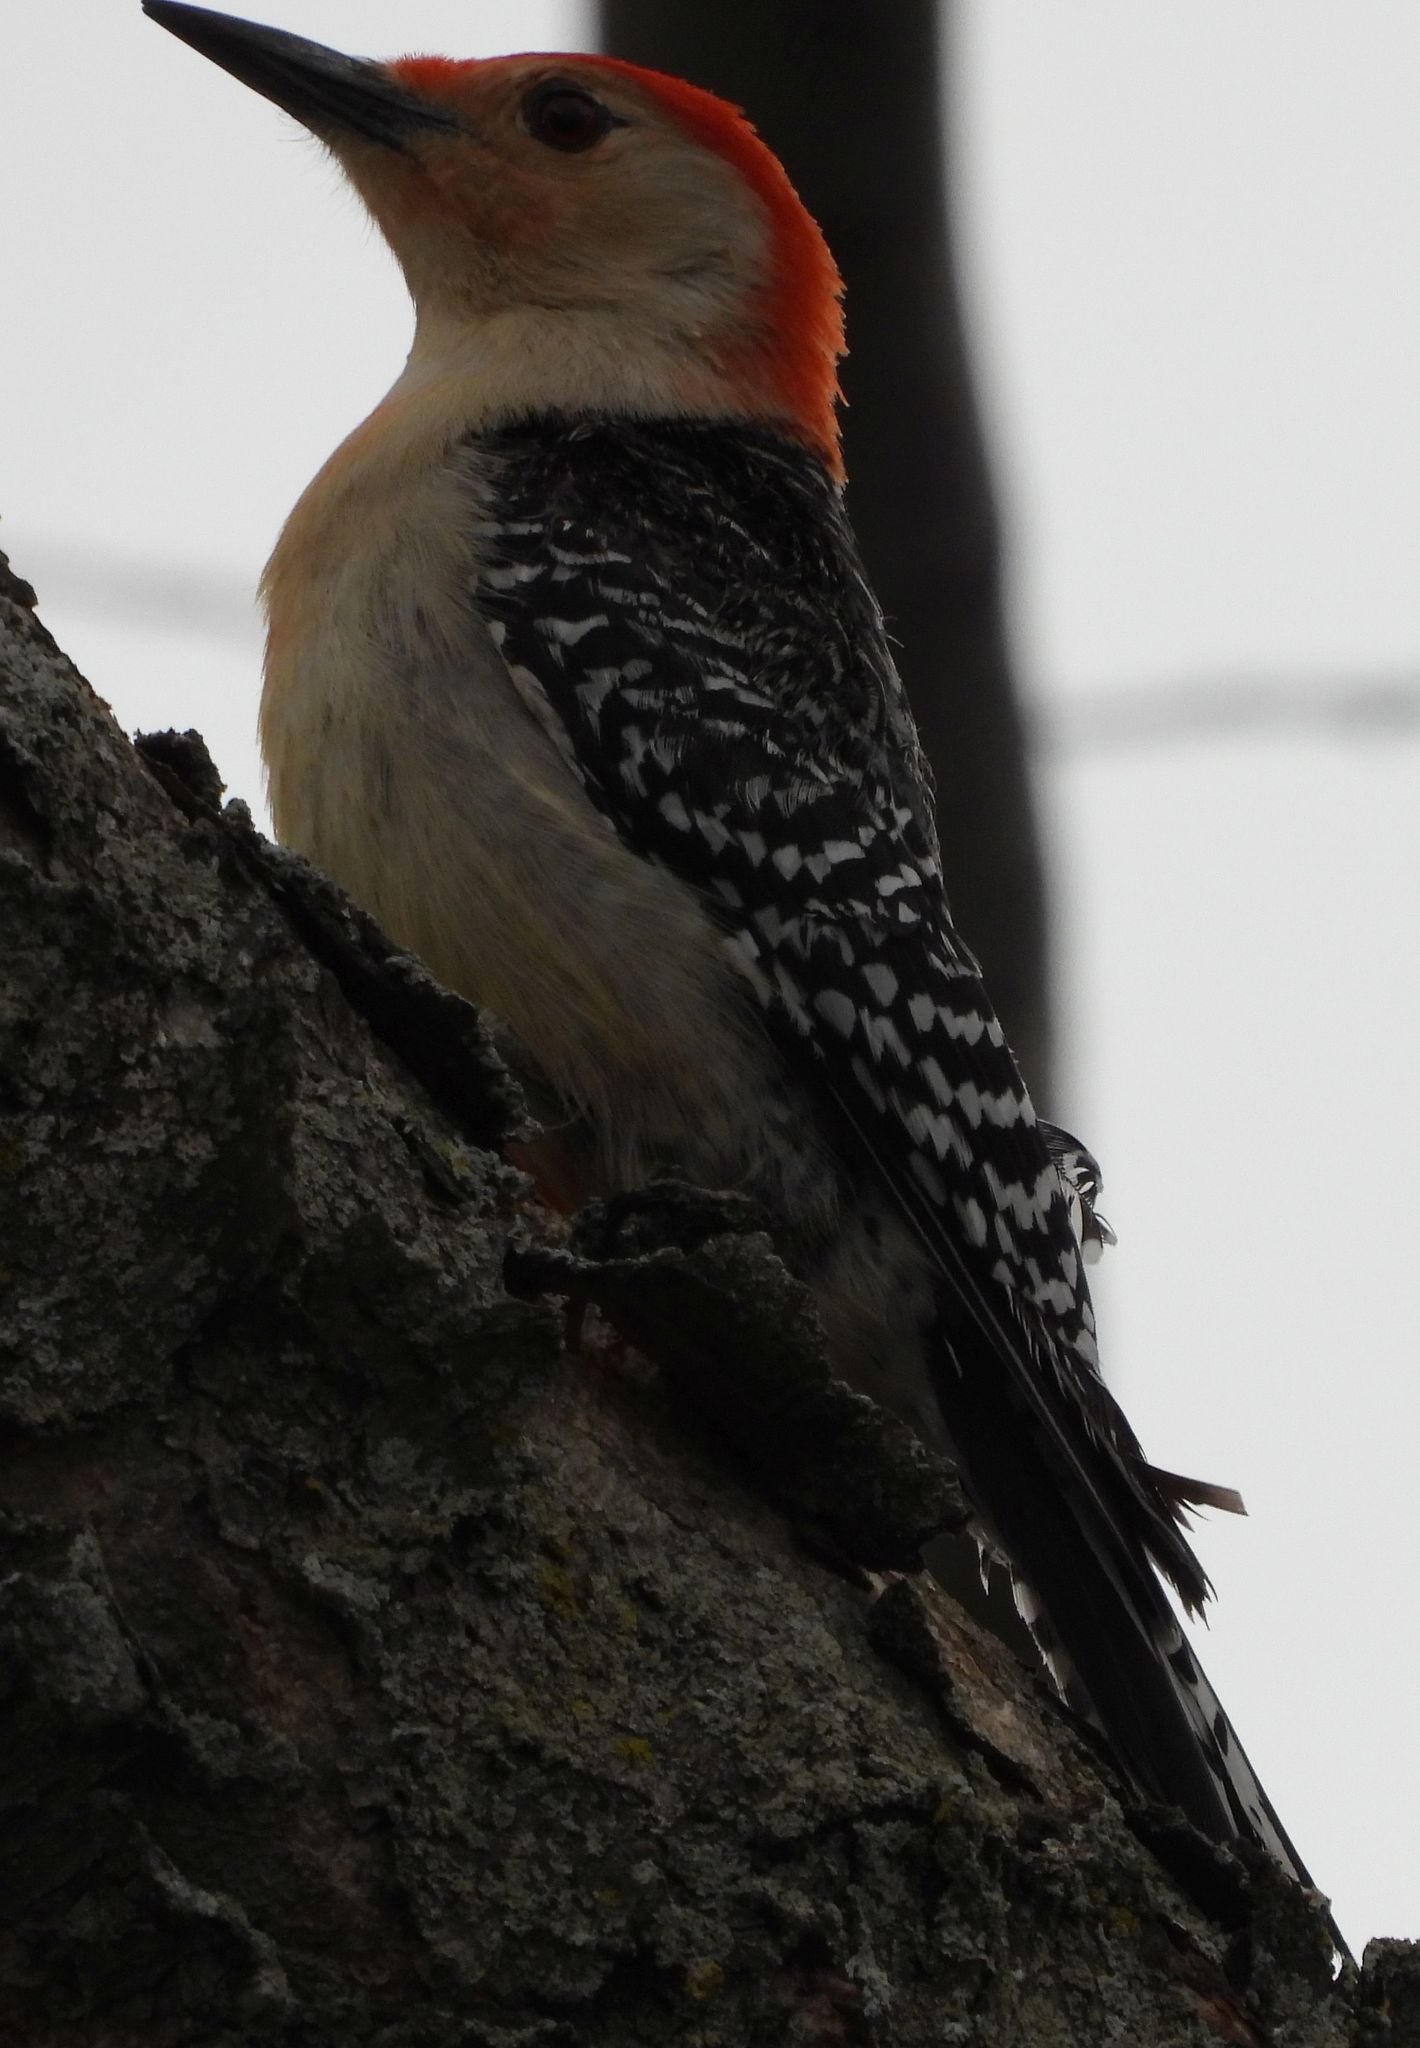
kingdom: Animalia
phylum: Chordata
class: Aves
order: Piciformes
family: Picidae
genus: Melanerpes
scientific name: Melanerpes carolinus
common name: Red-bellied woodpecker
